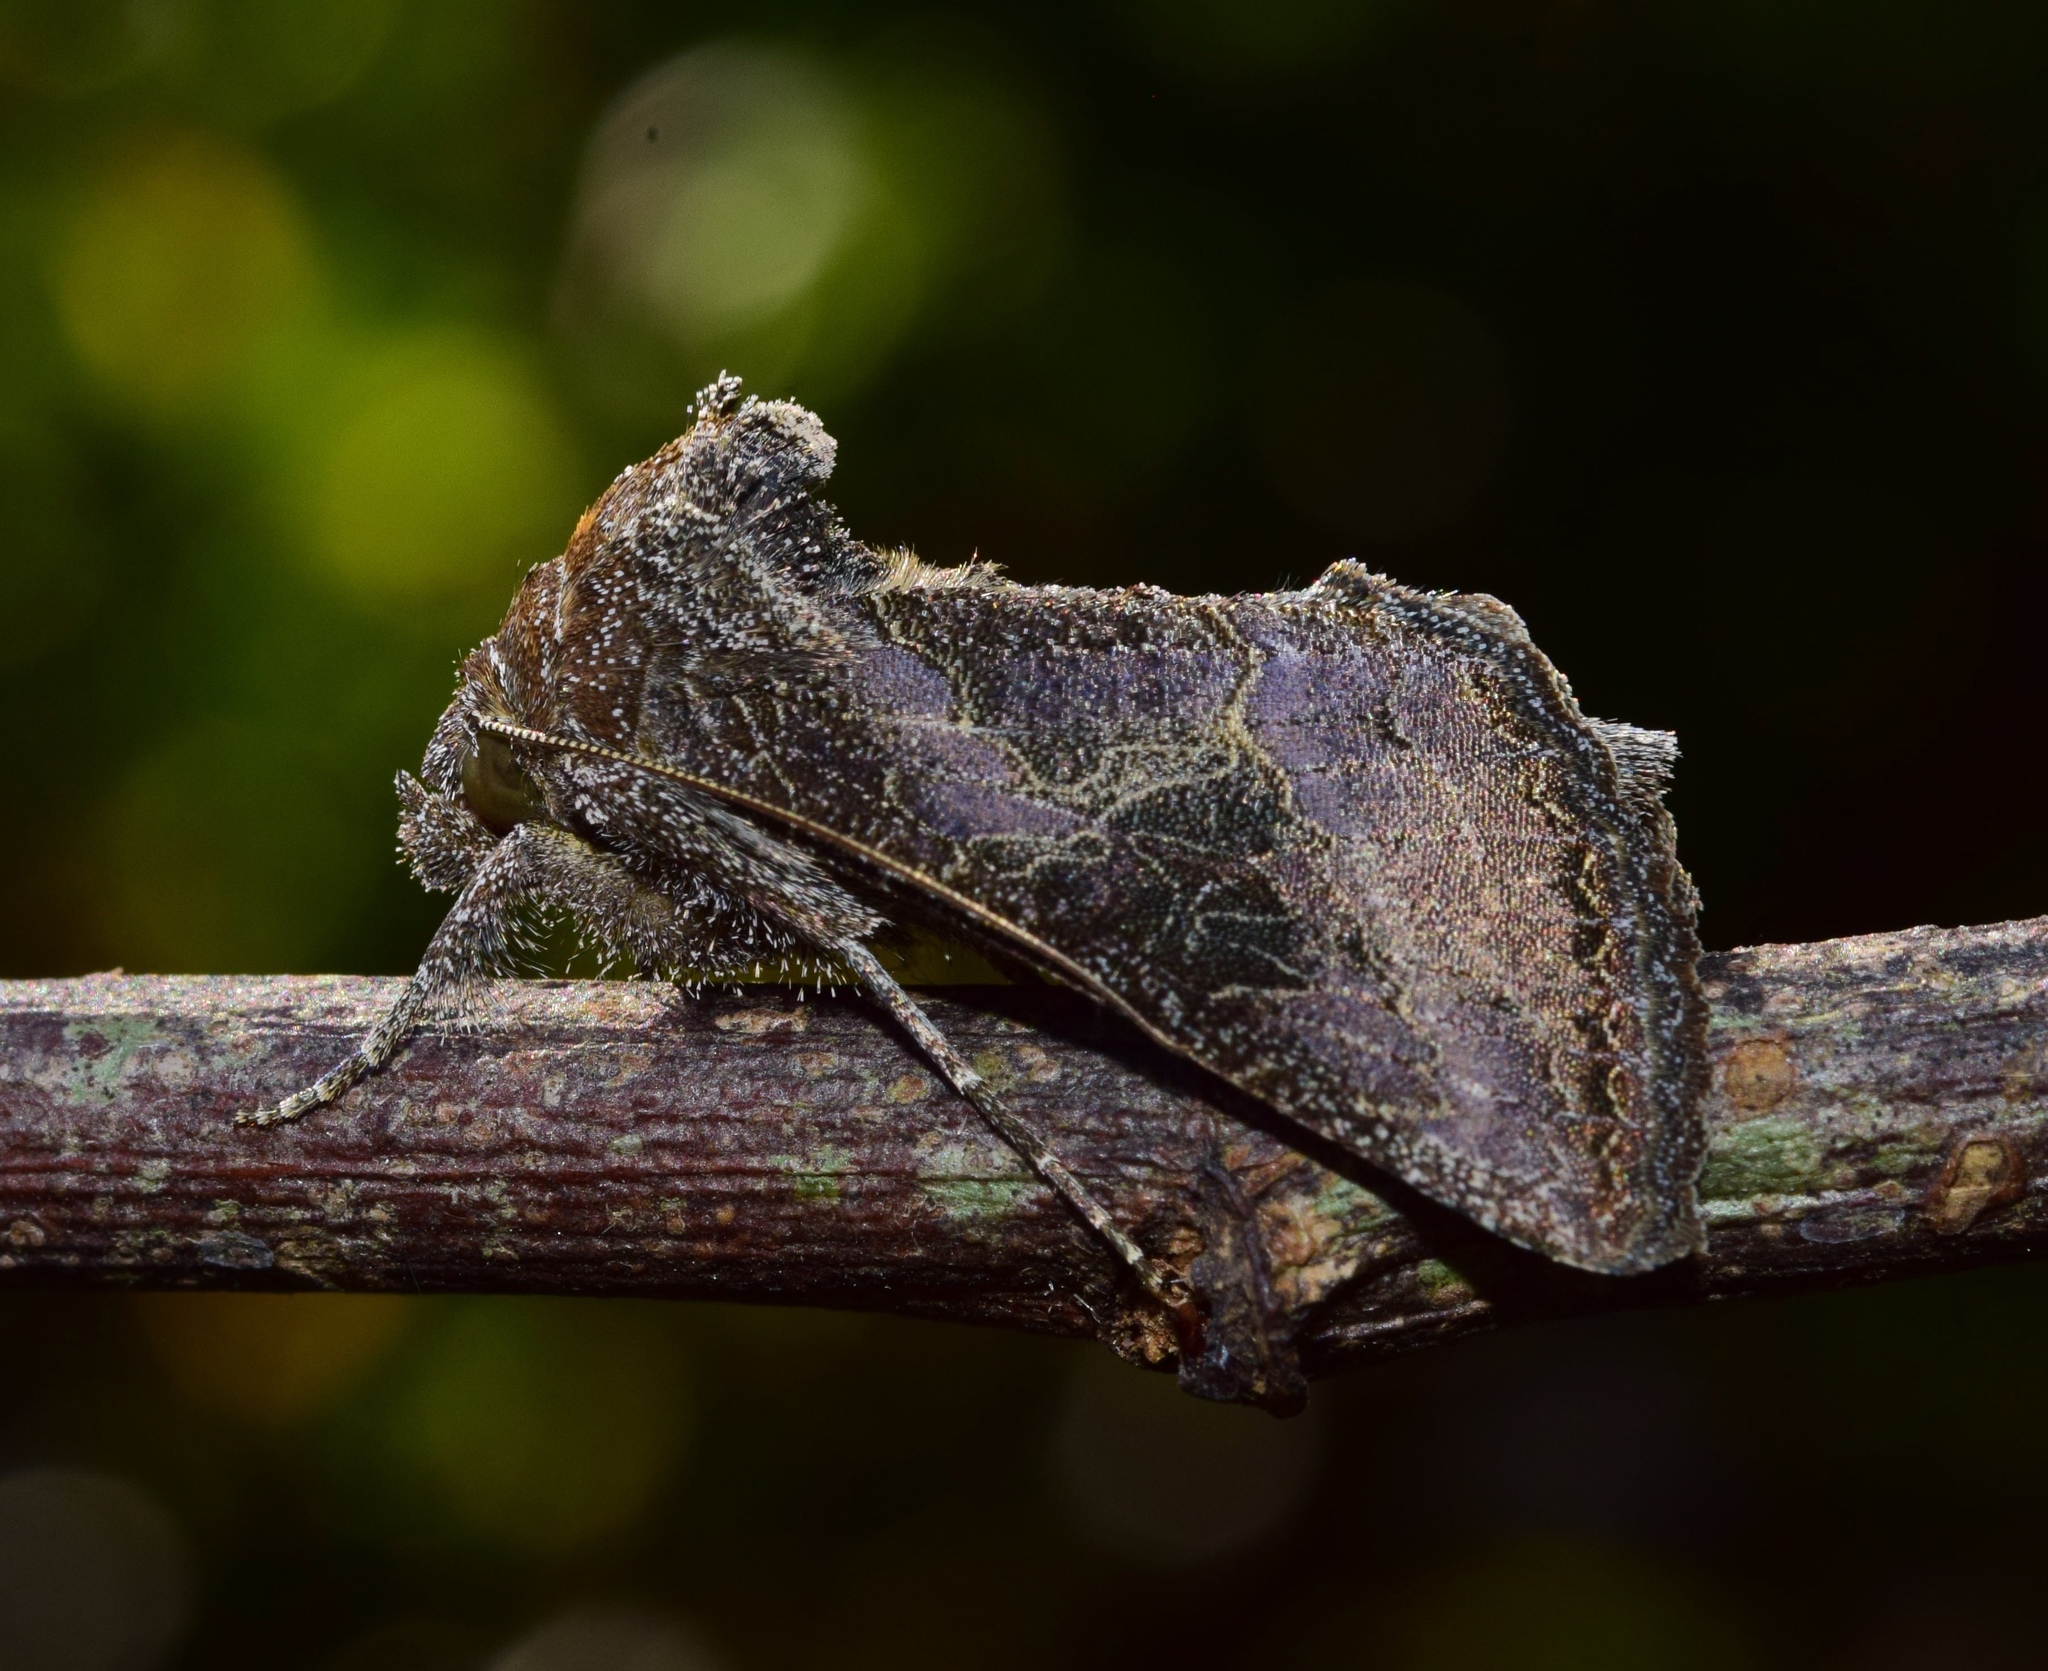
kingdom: Animalia
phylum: Arthropoda
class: Insecta
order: Lepidoptera
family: Noctuidae
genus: Thysanoplusia
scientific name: Thysanoplusia spoliata
